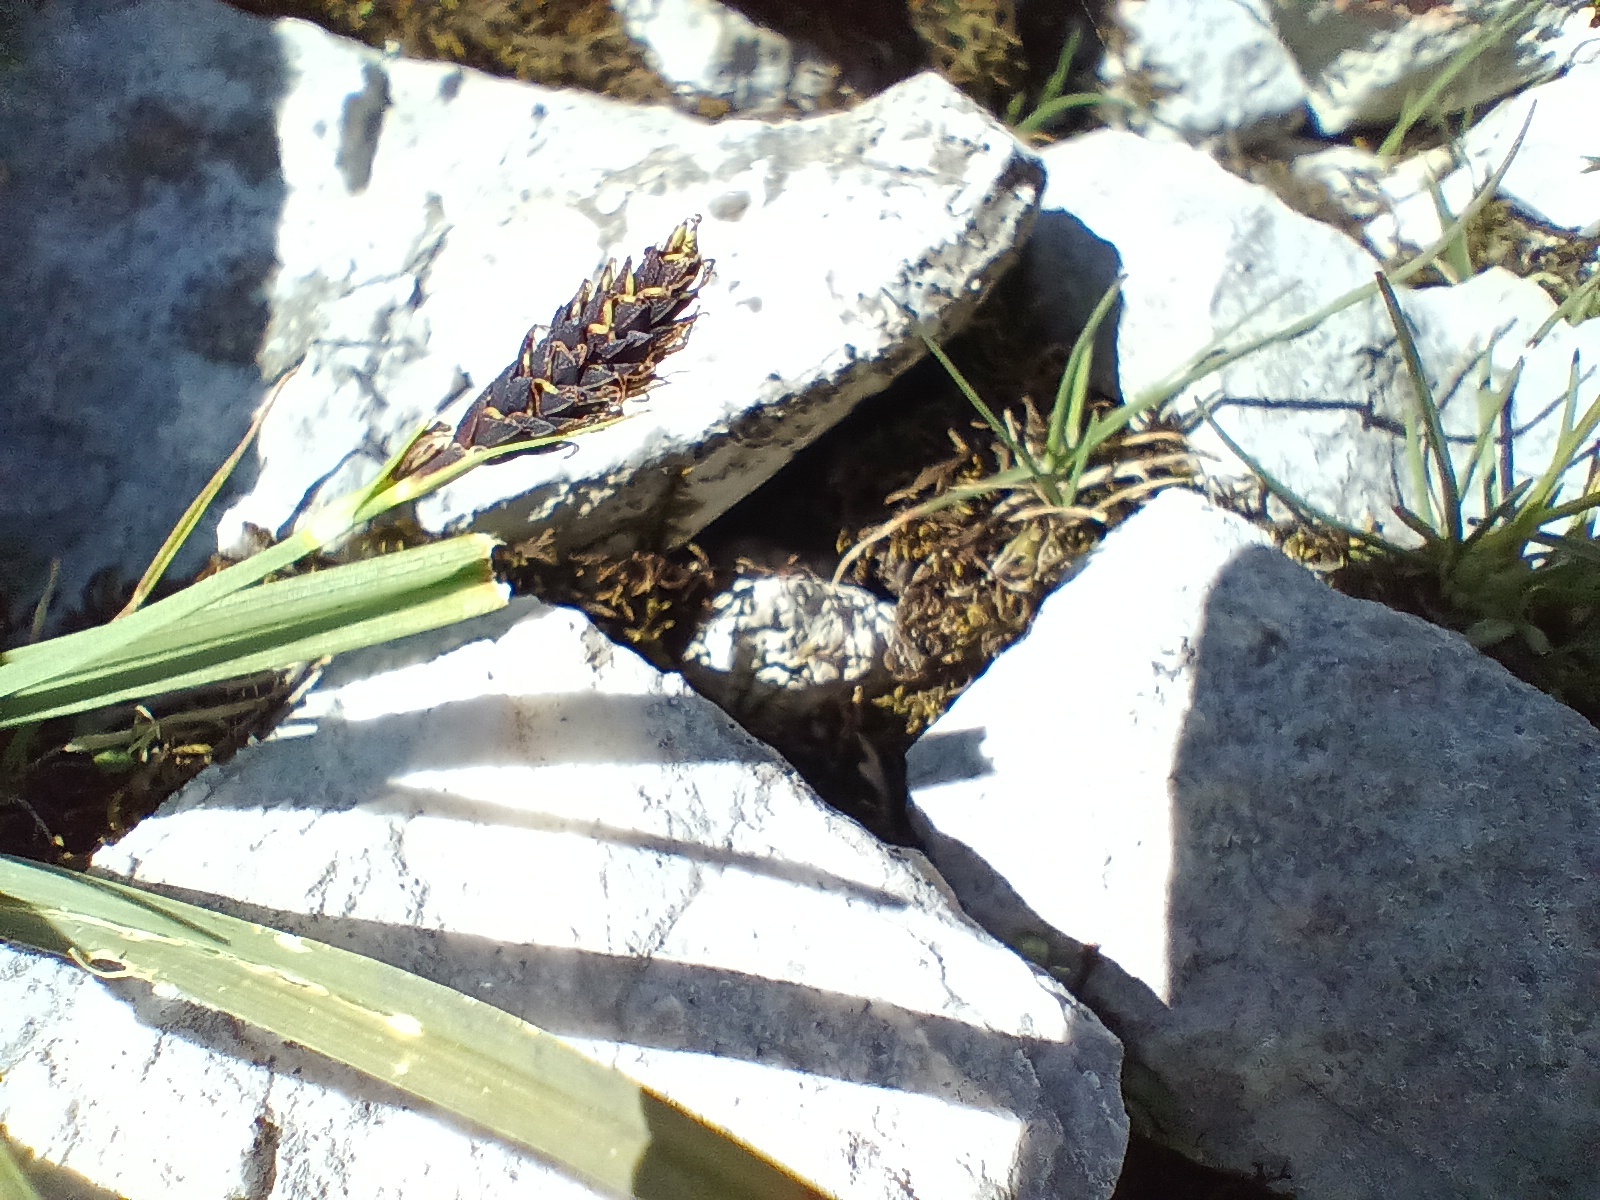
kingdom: Plantae
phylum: Tracheophyta
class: Liliopsida
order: Poales
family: Cyperaceae
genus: Carex
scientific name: Carex atrata
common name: Black alpine sedge
